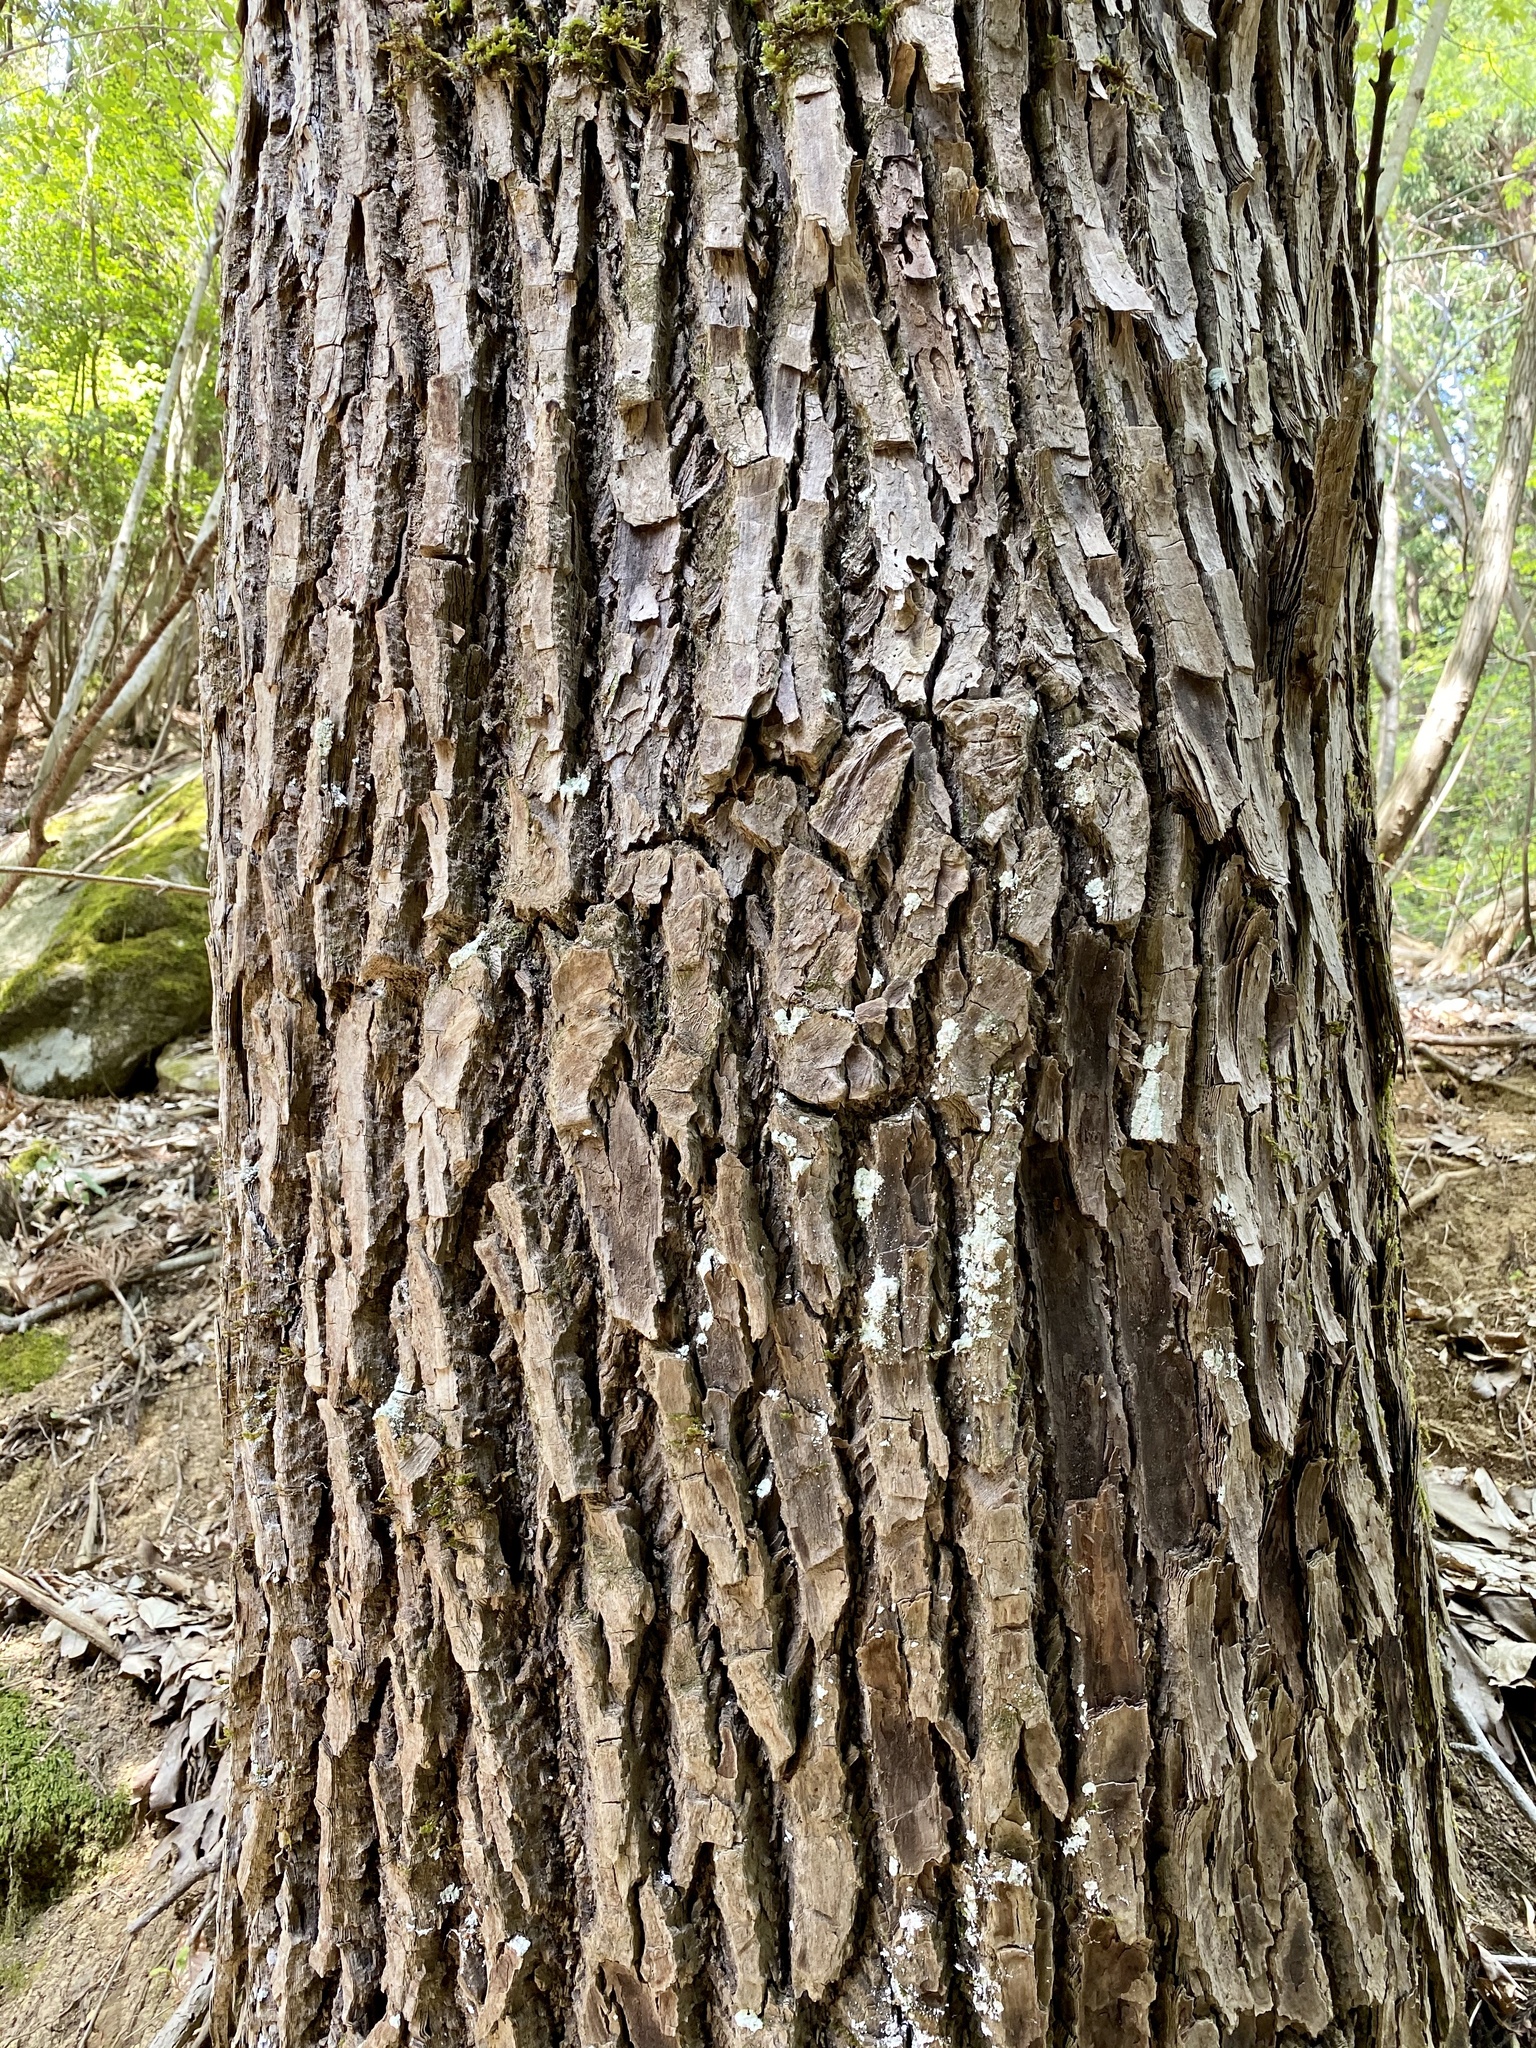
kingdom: Plantae
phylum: Tracheophyta
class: Magnoliopsida
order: Apiales
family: Araliaceae
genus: Kalopanax
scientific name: Kalopanax septemlobus
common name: Castor aralia
